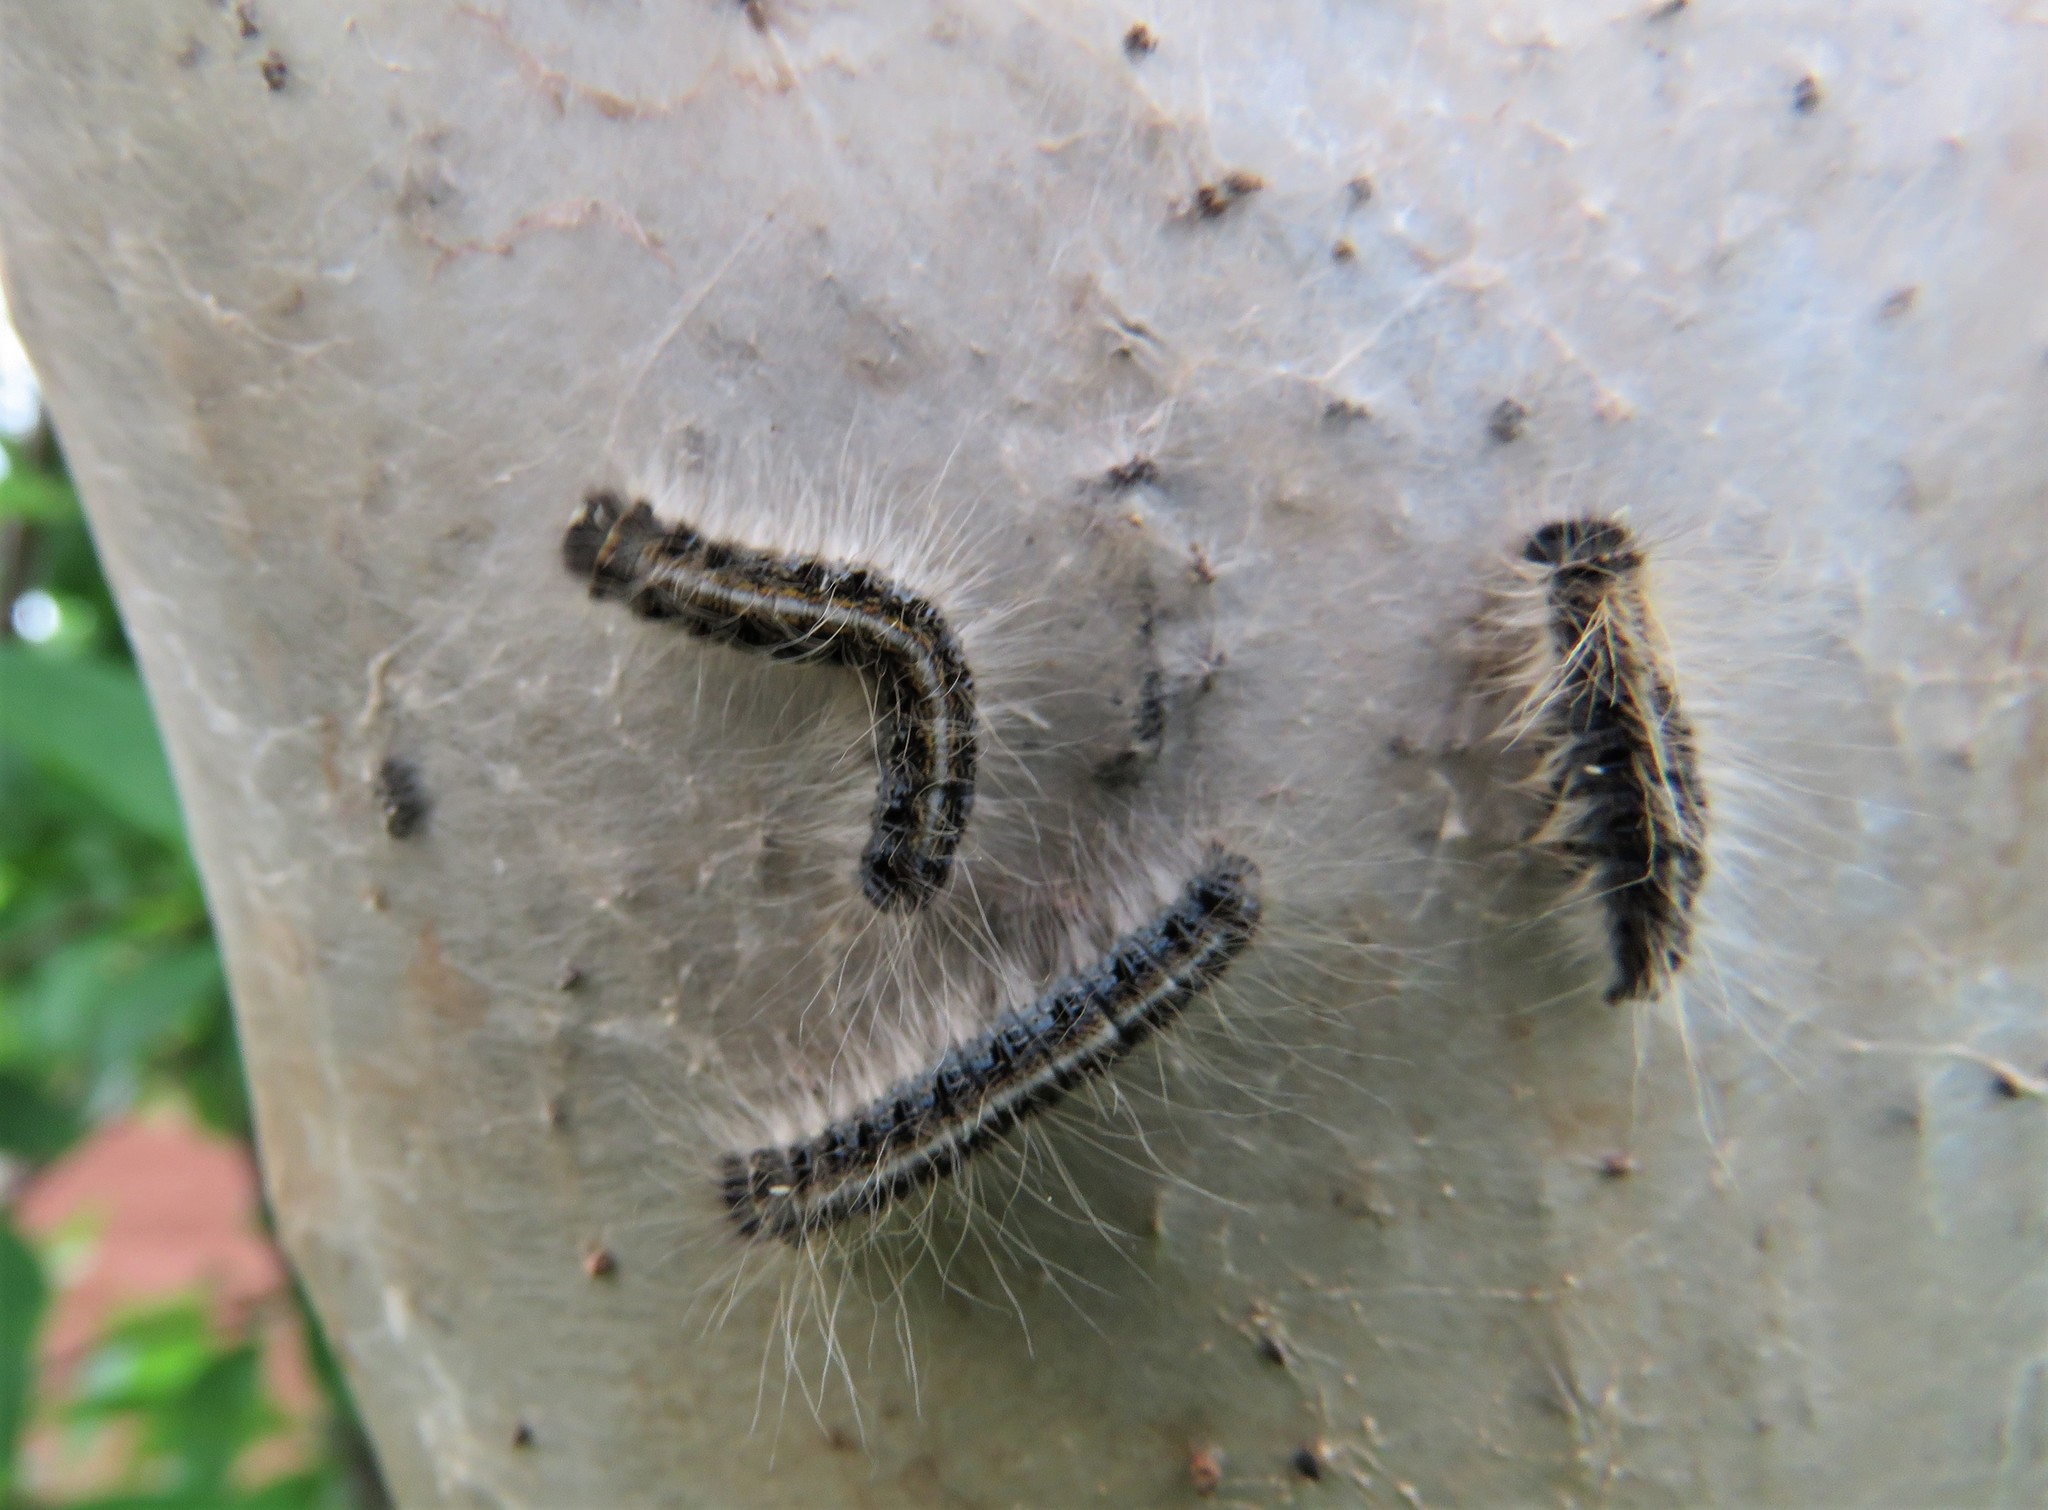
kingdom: Animalia
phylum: Arthropoda
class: Insecta
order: Lepidoptera
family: Lasiocampidae
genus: Malacosoma
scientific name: Malacosoma americana
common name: Eastern tent caterpillar moth
